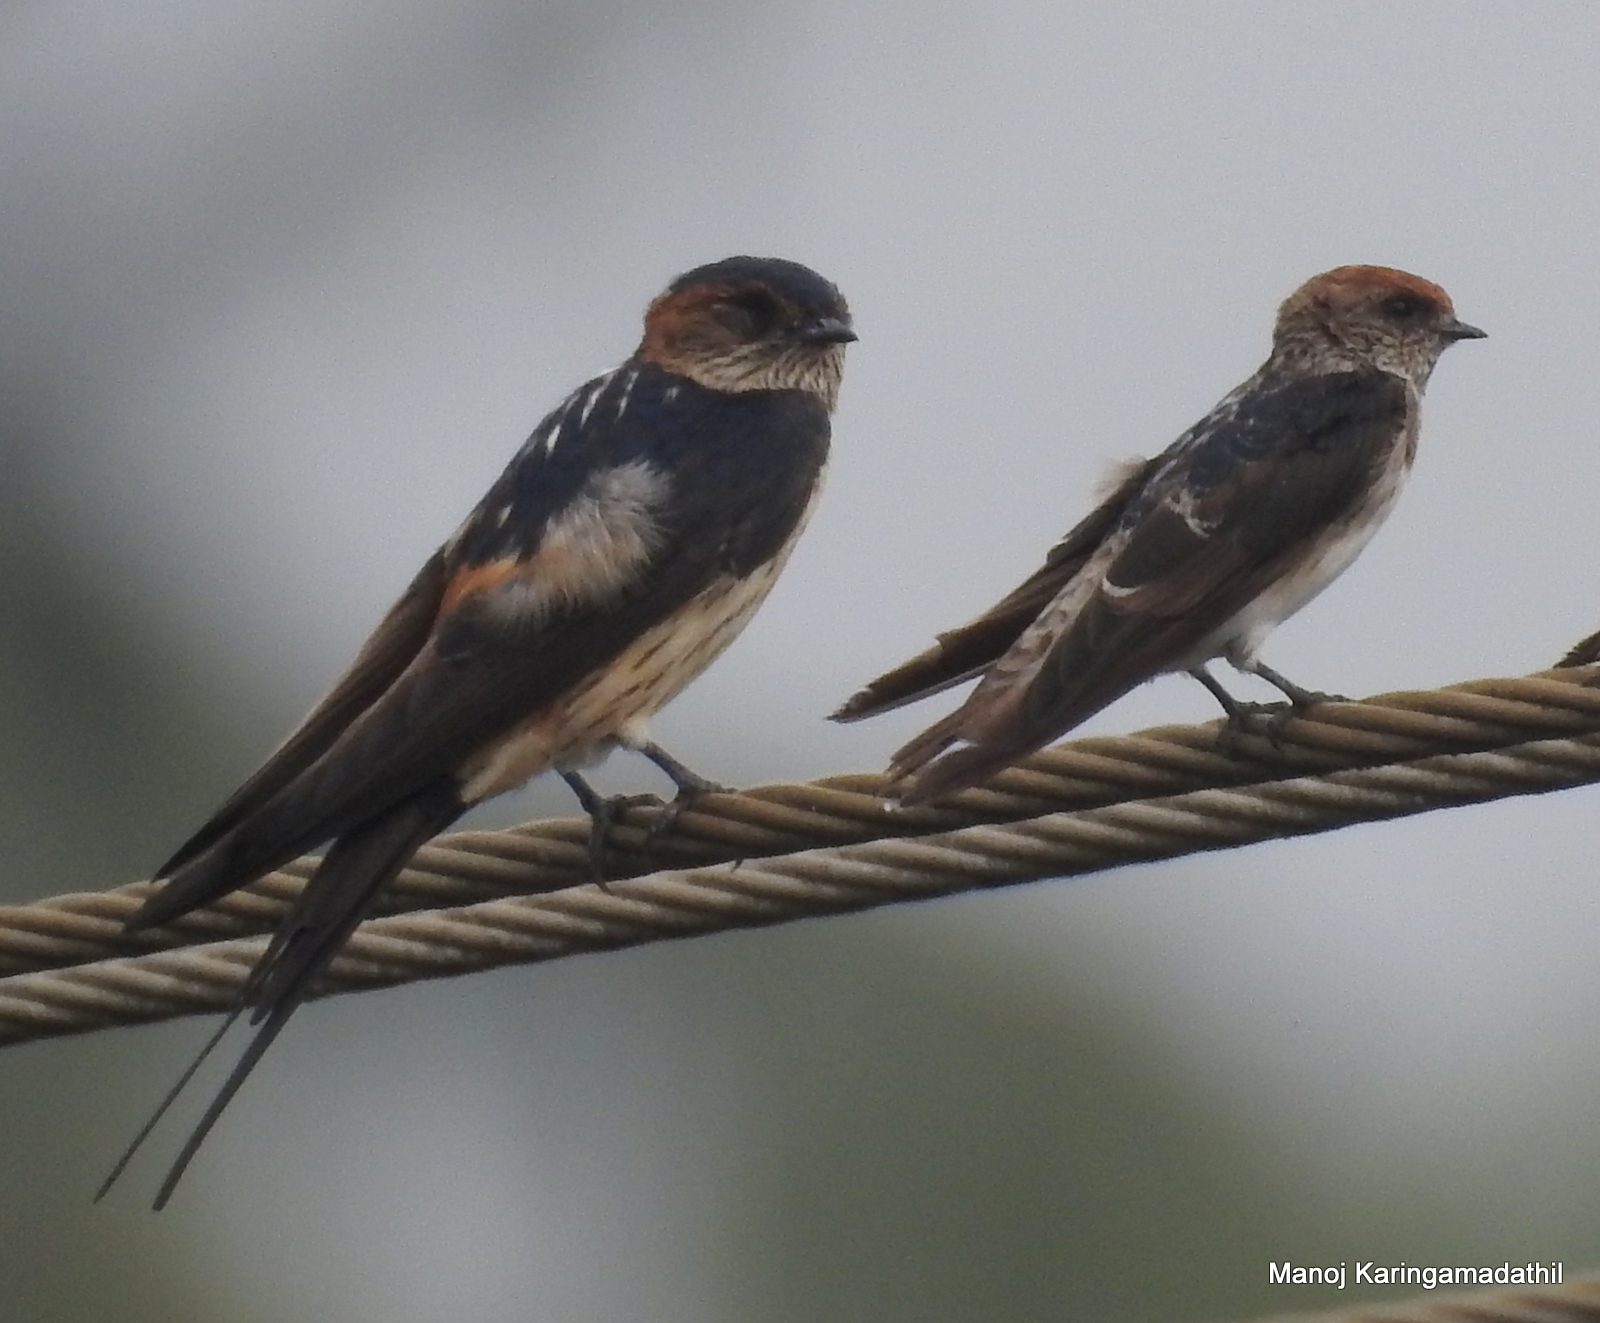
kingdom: Animalia
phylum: Chordata
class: Aves
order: Passeriformes
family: Hirundinidae
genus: Petrochelidon
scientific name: Petrochelidon fluvicola
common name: Streak-throated swallow
